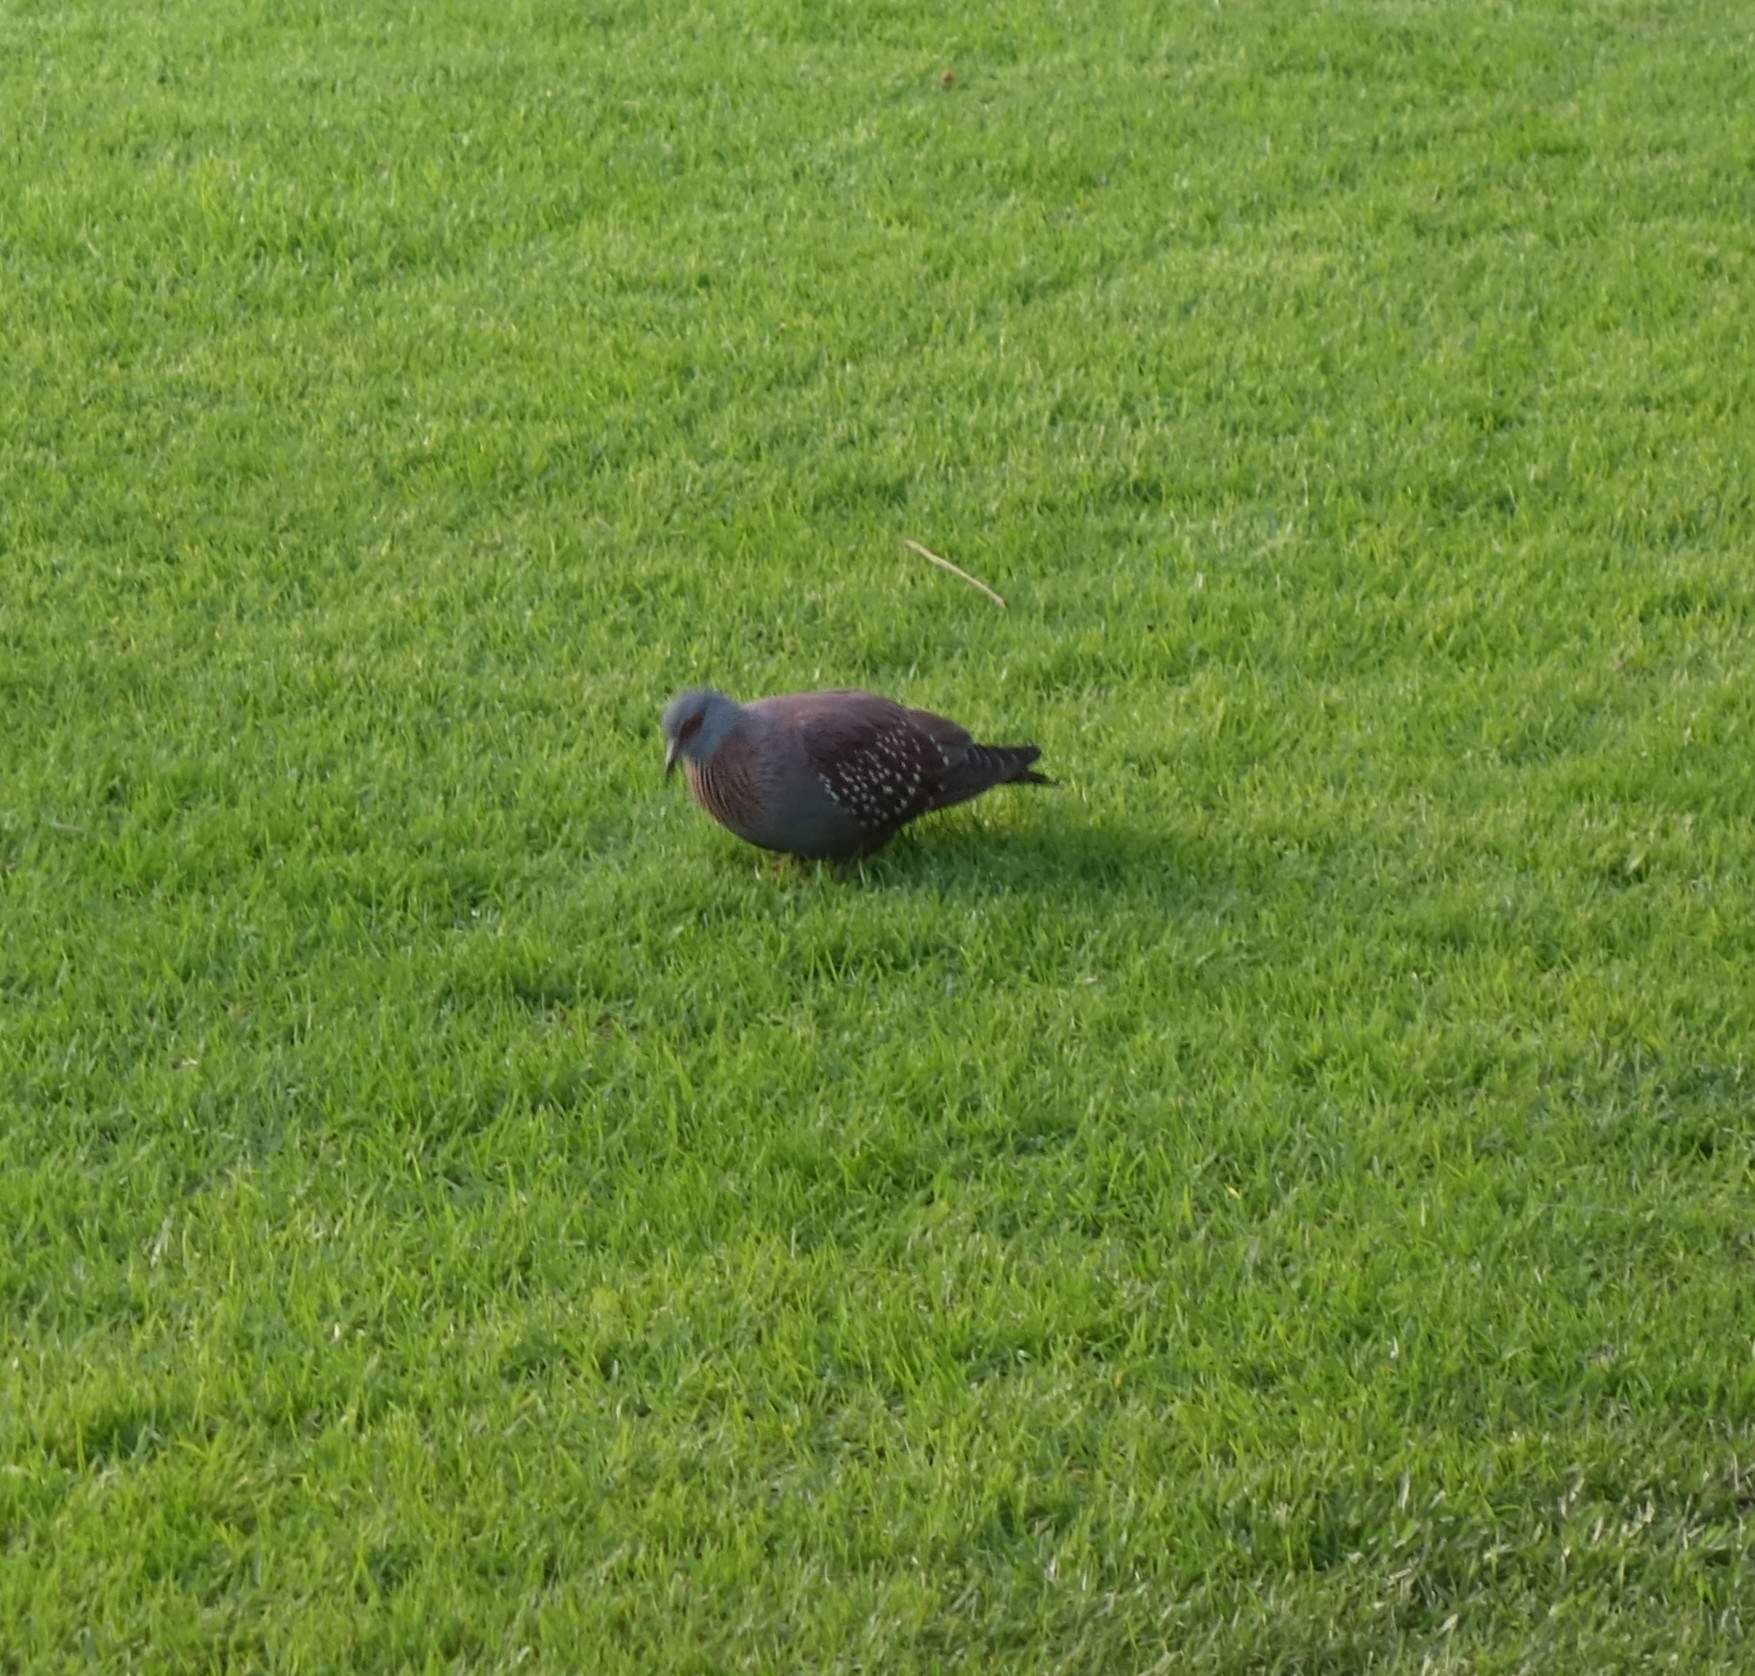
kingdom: Animalia
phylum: Chordata
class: Aves
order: Columbiformes
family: Columbidae
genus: Columba
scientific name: Columba guinea
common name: Speckled pigeon
